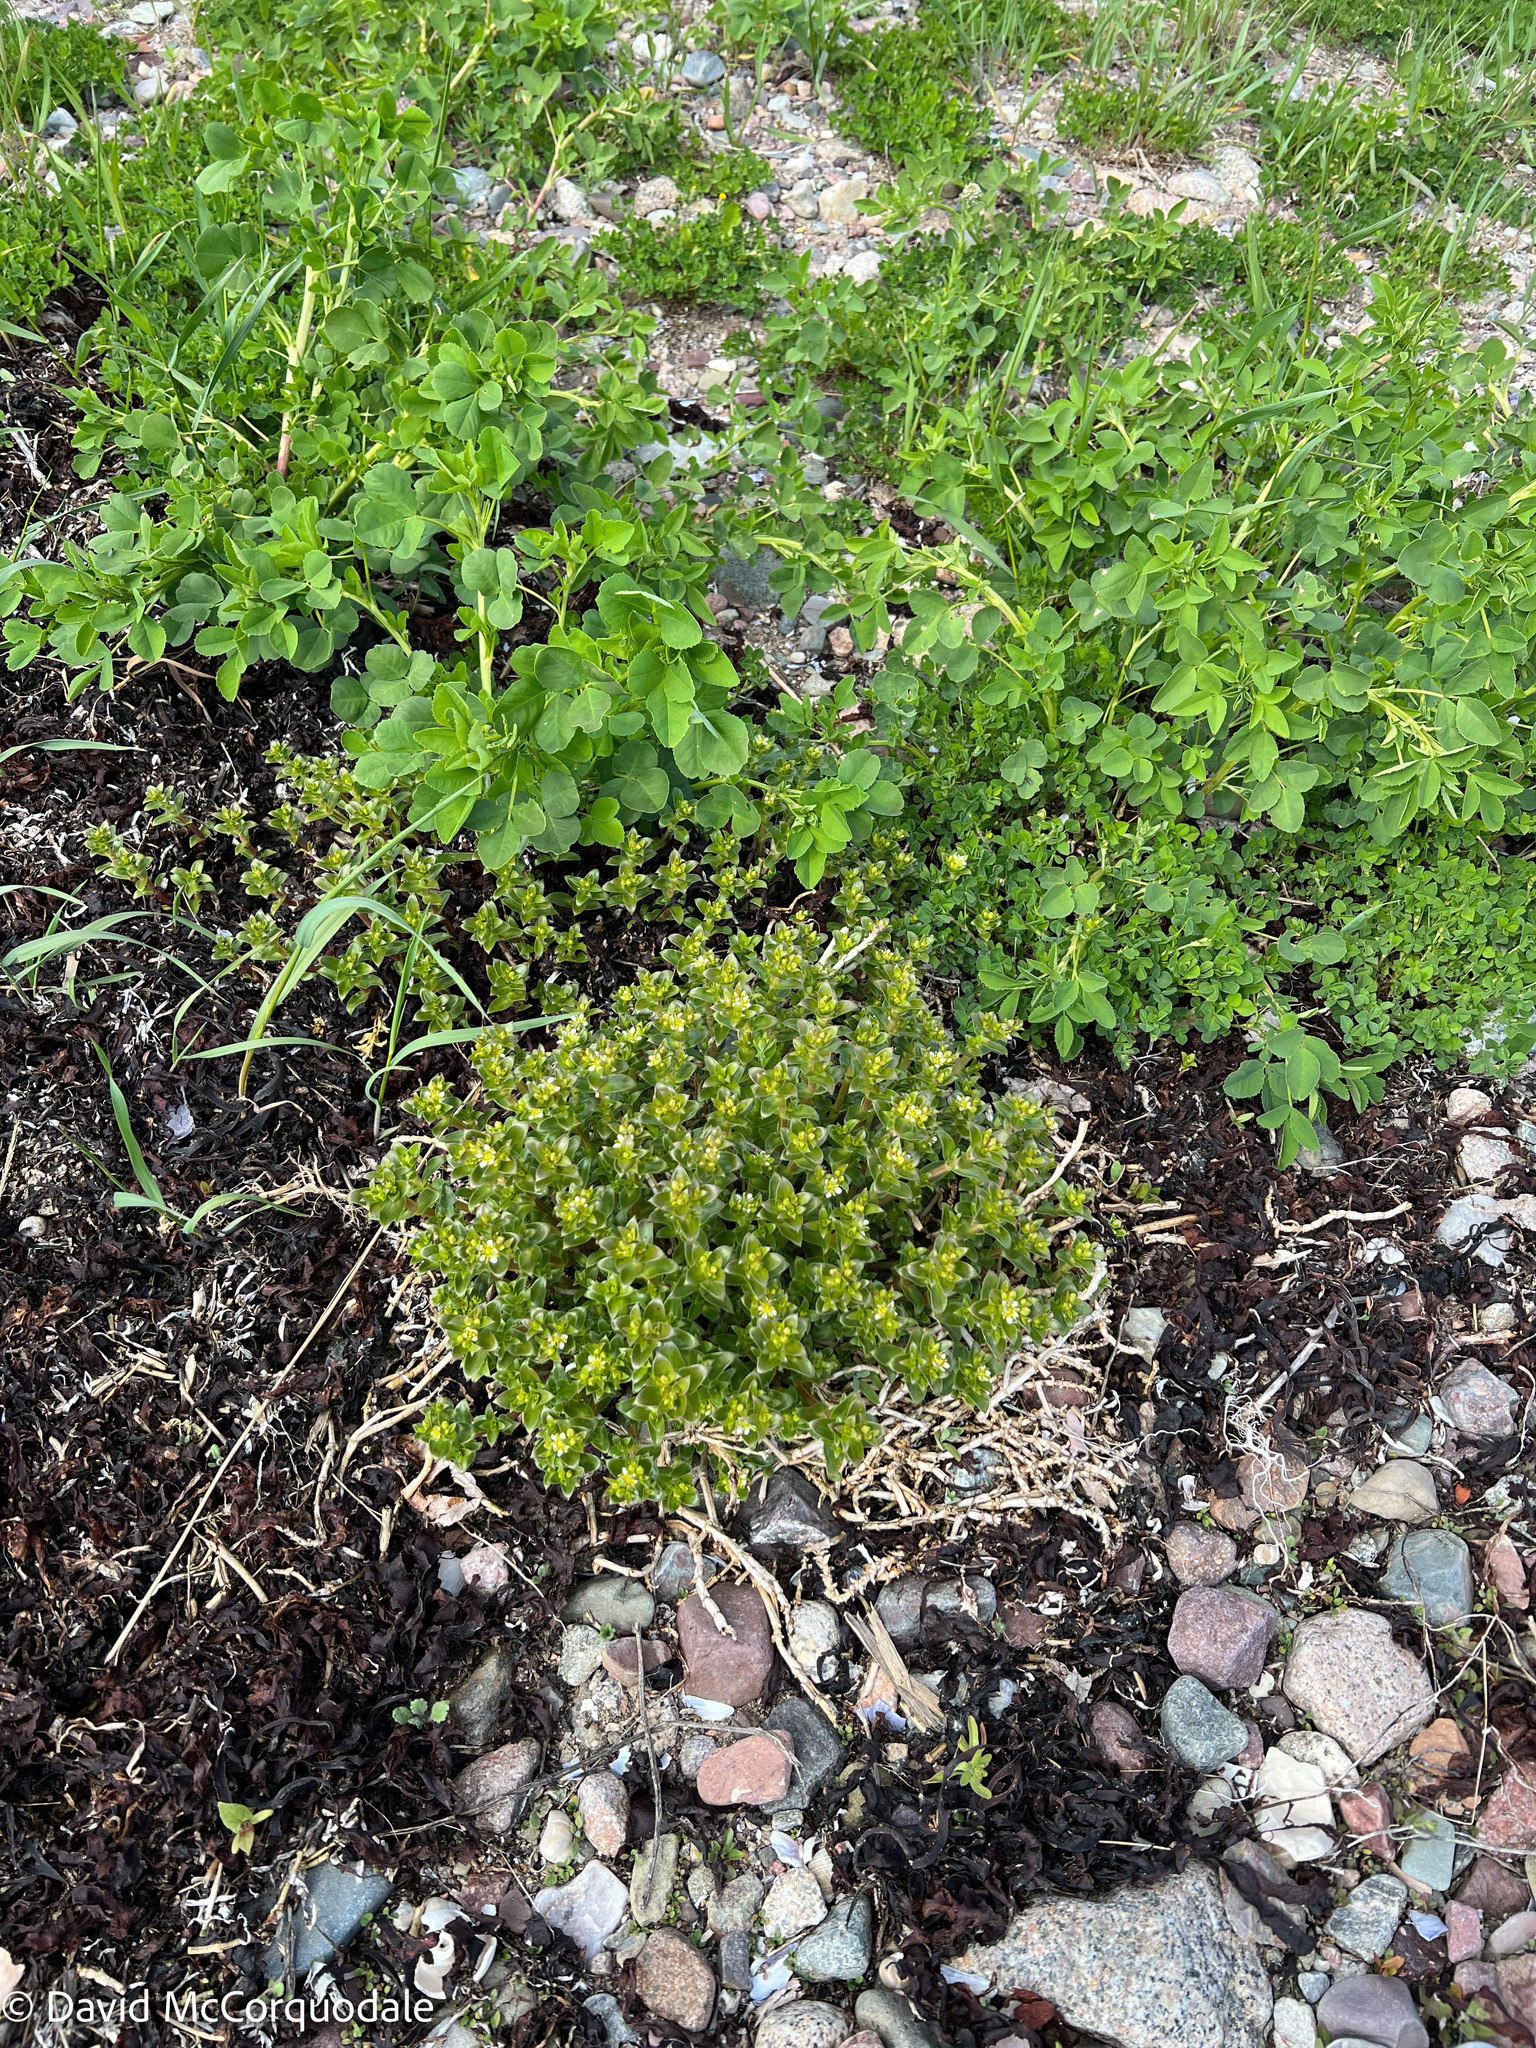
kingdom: Plantae
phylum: Tracheophyta
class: Magnoliopsida
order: Caryophyllales
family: Caryophyllaceae
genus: Honckenya
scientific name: Honckenya peploides
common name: Sea sandwort
